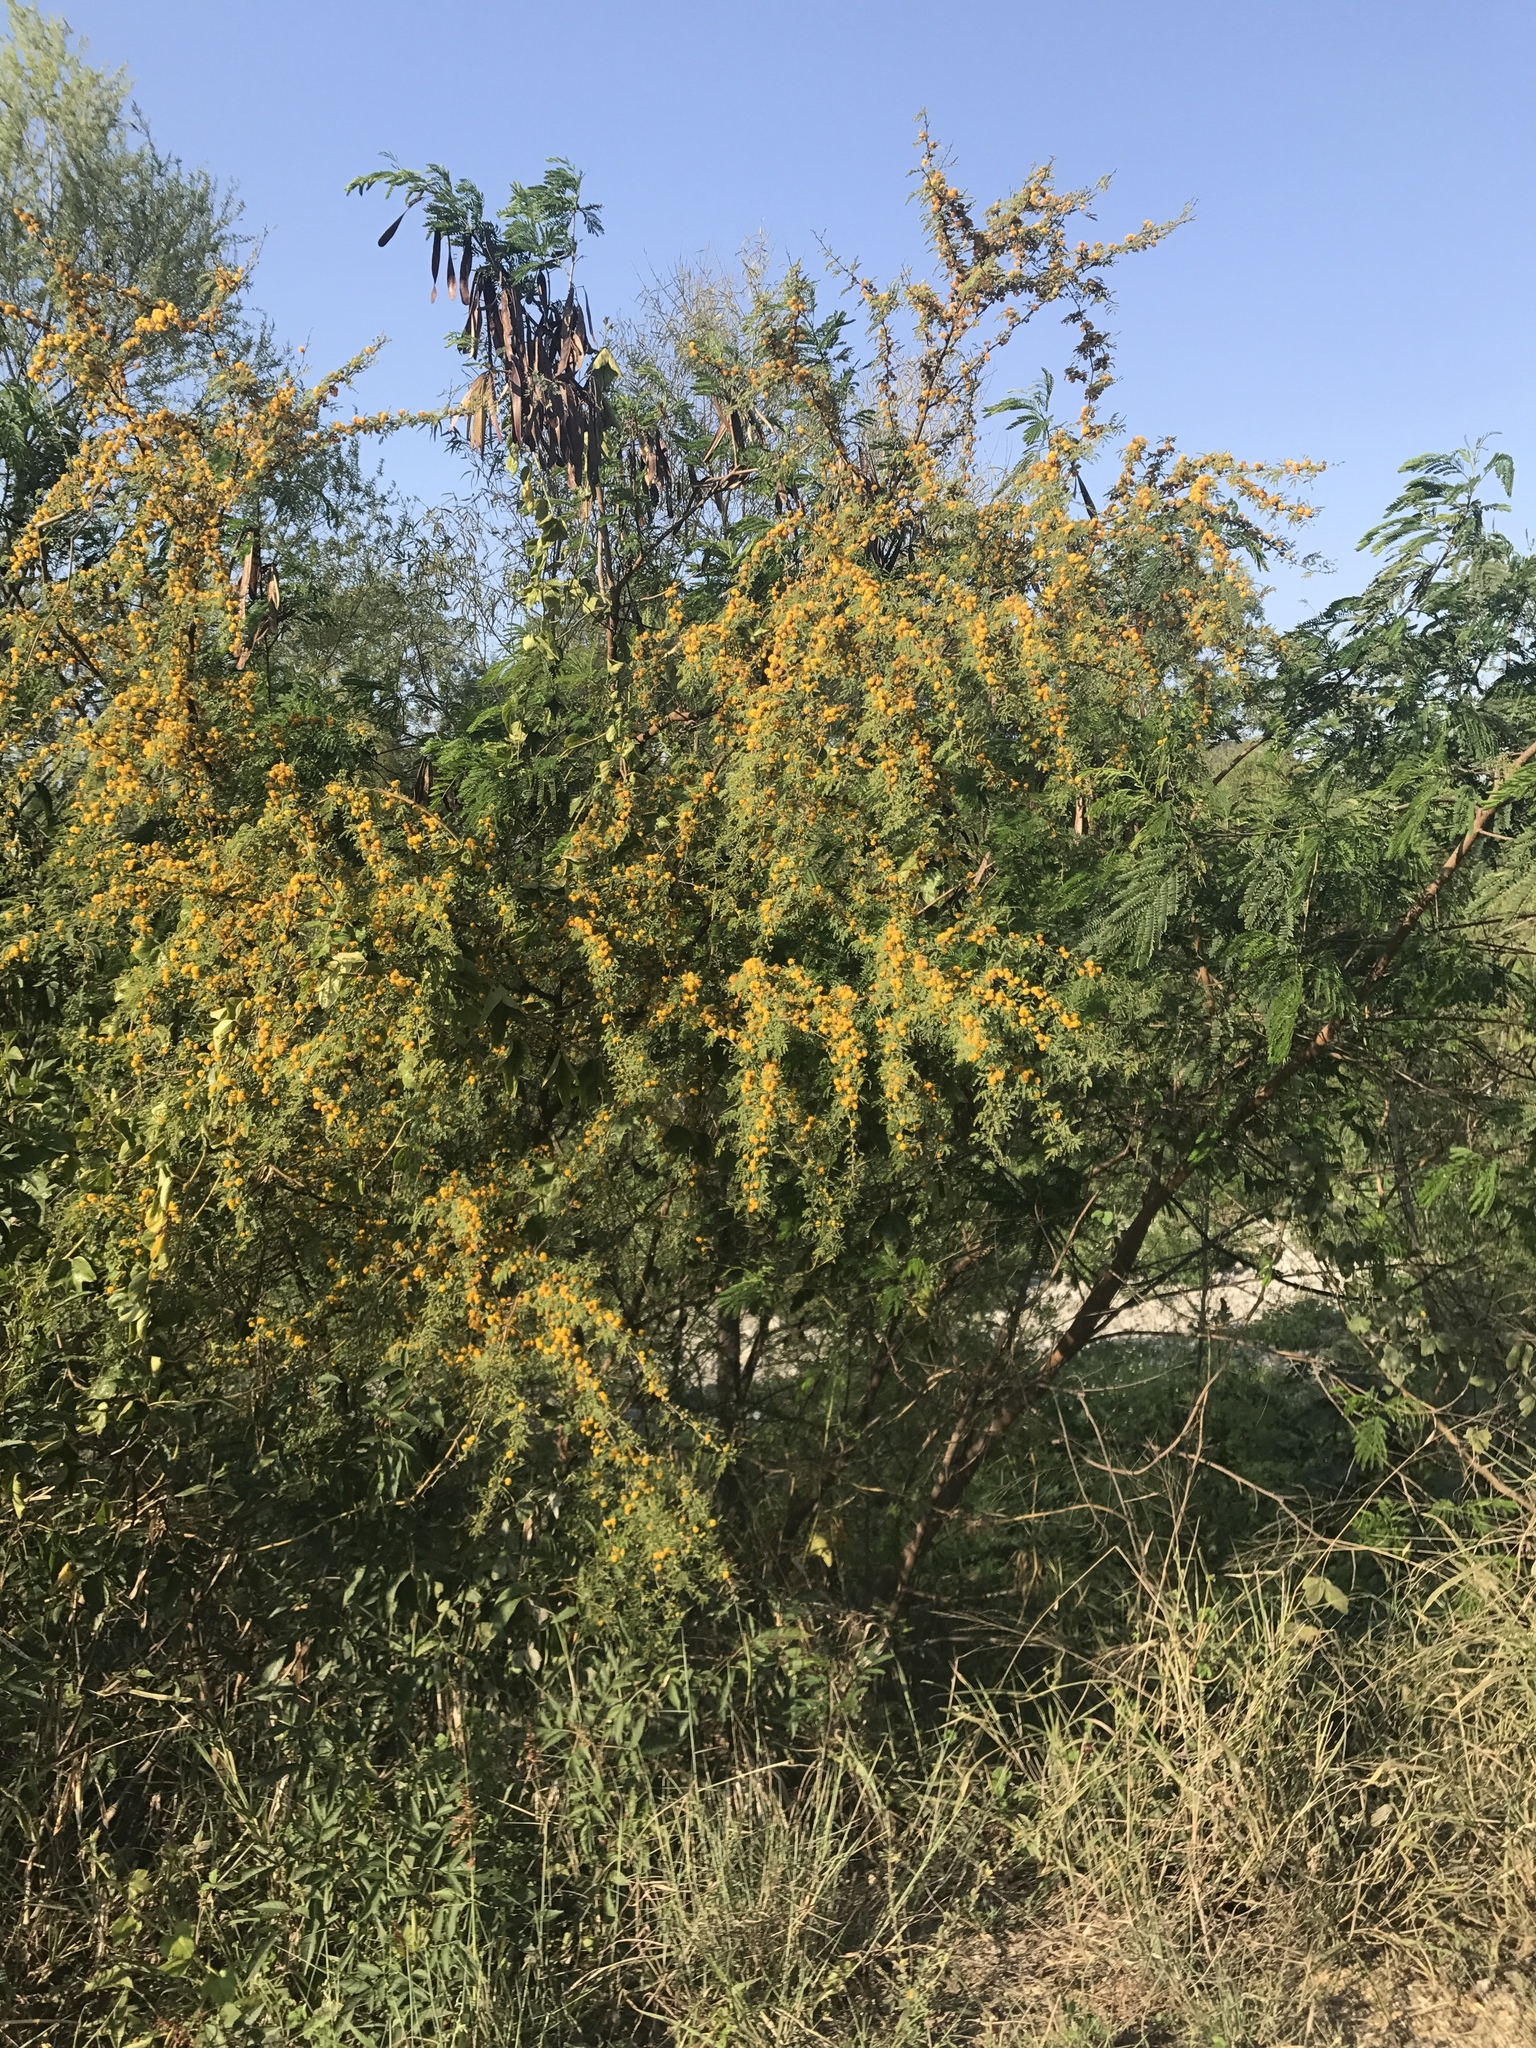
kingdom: Plantae
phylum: Tracheophyta
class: Magnoliopsida
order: Fabales
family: Fabaceae
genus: Vachellia
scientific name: Vachellia farnesiana
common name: Sweet acacia
